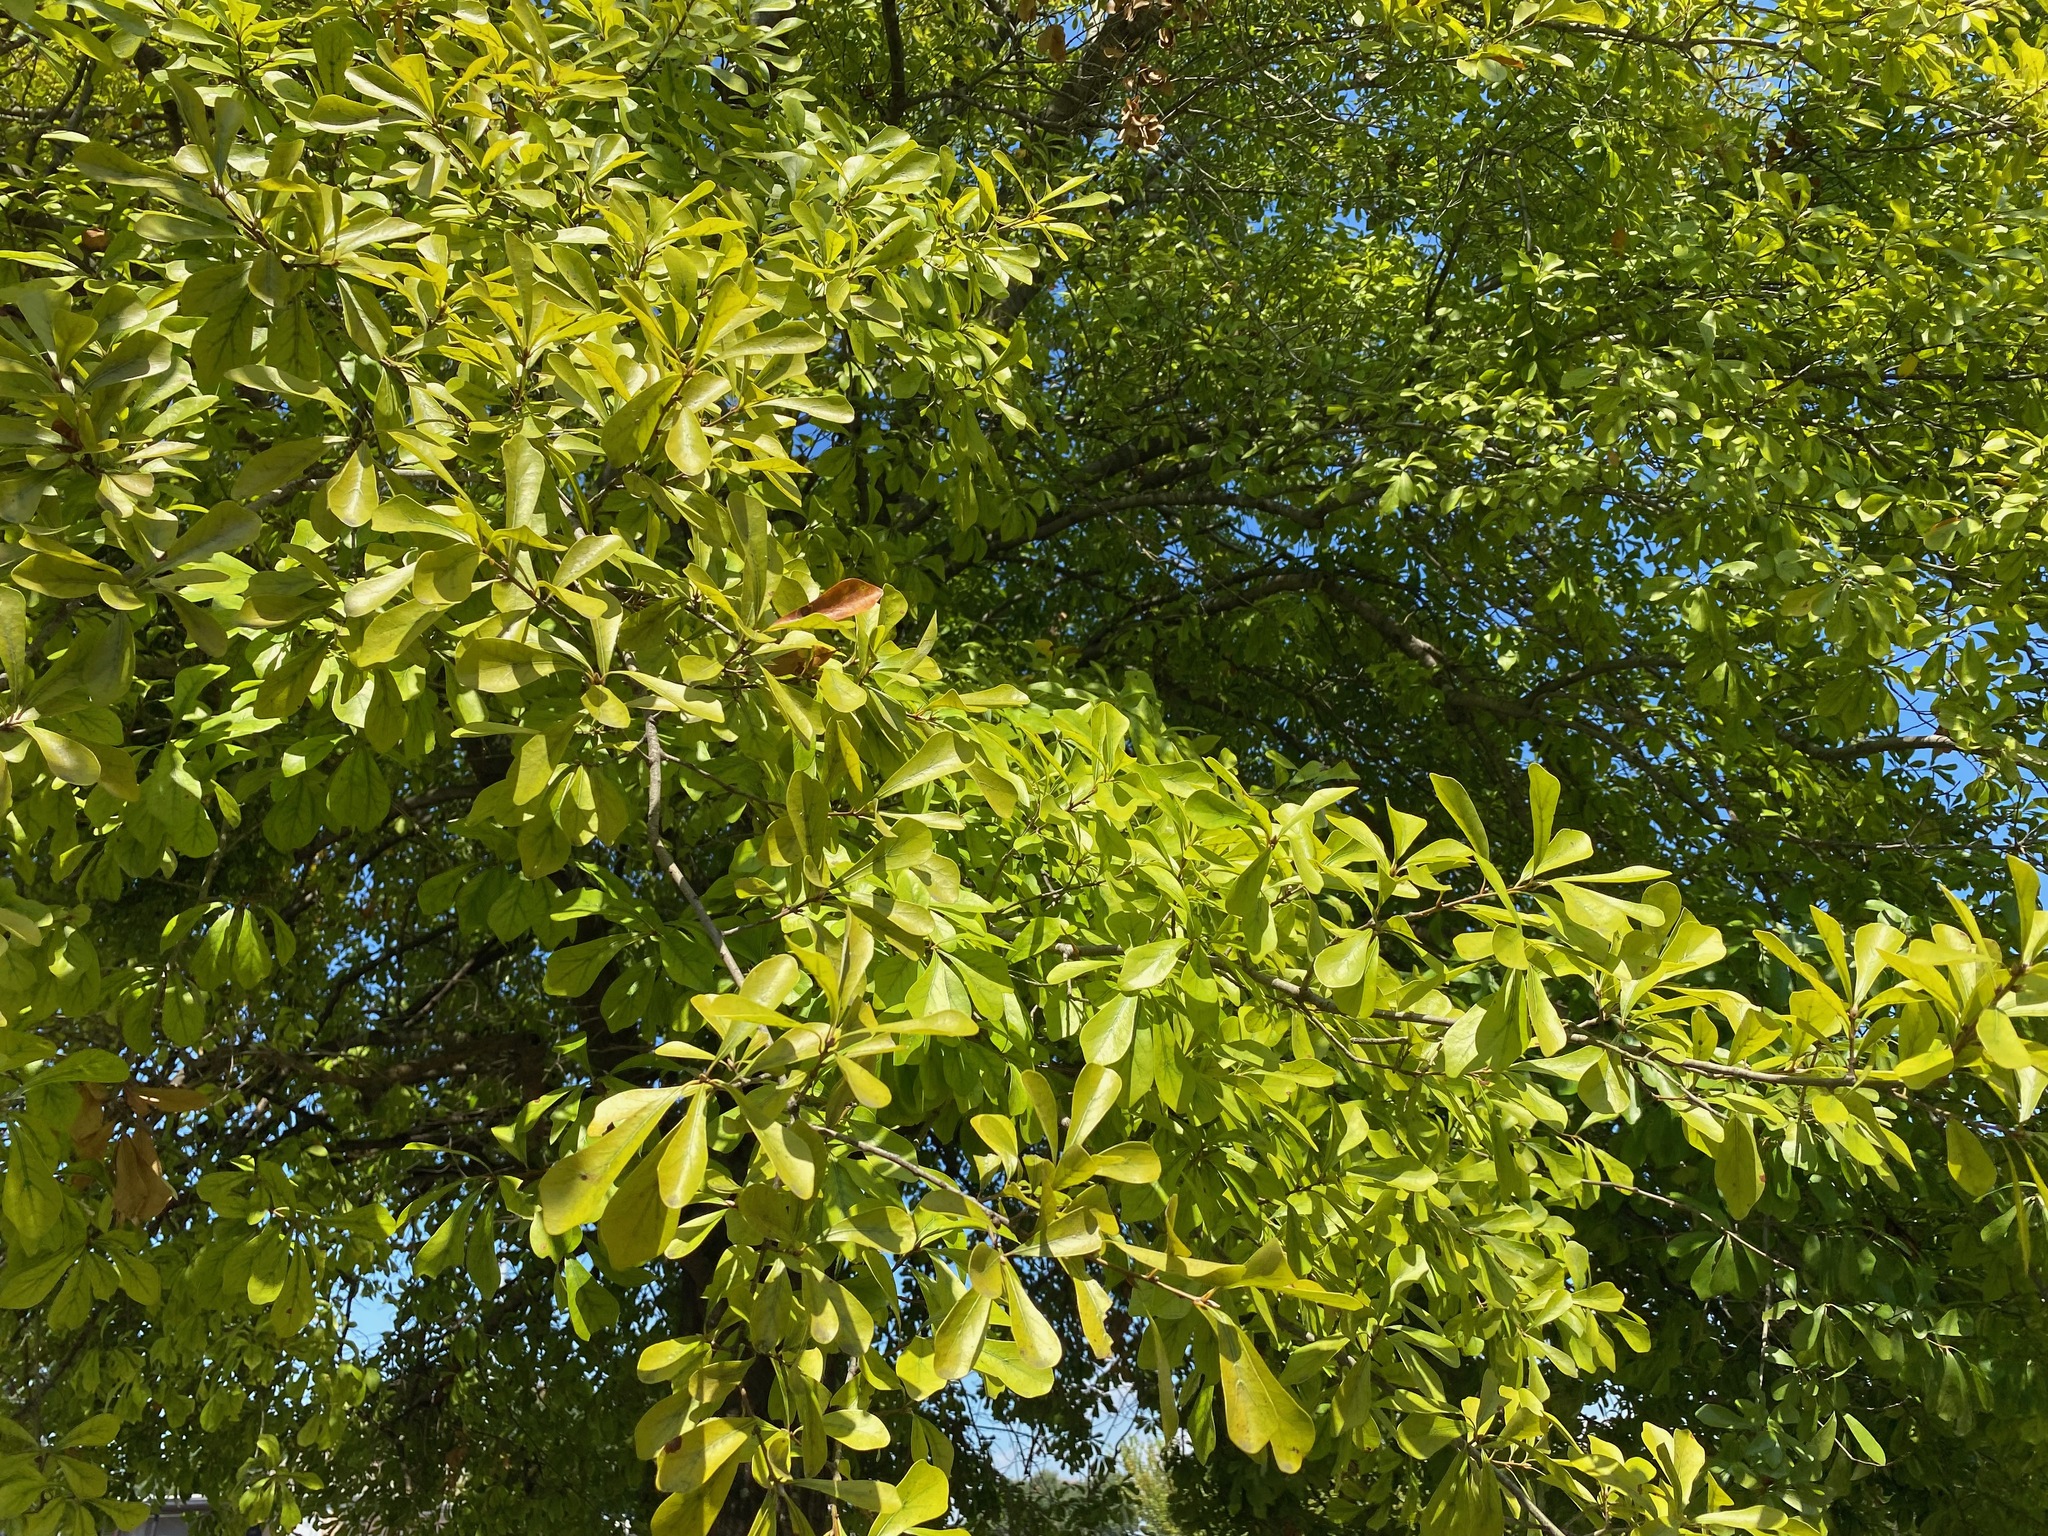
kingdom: Plantae
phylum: Tracheophyta
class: Magnoliopsida
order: Fagales
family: Fagaceae
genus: Quercus
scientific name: Quercus nigra
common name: Water oak
